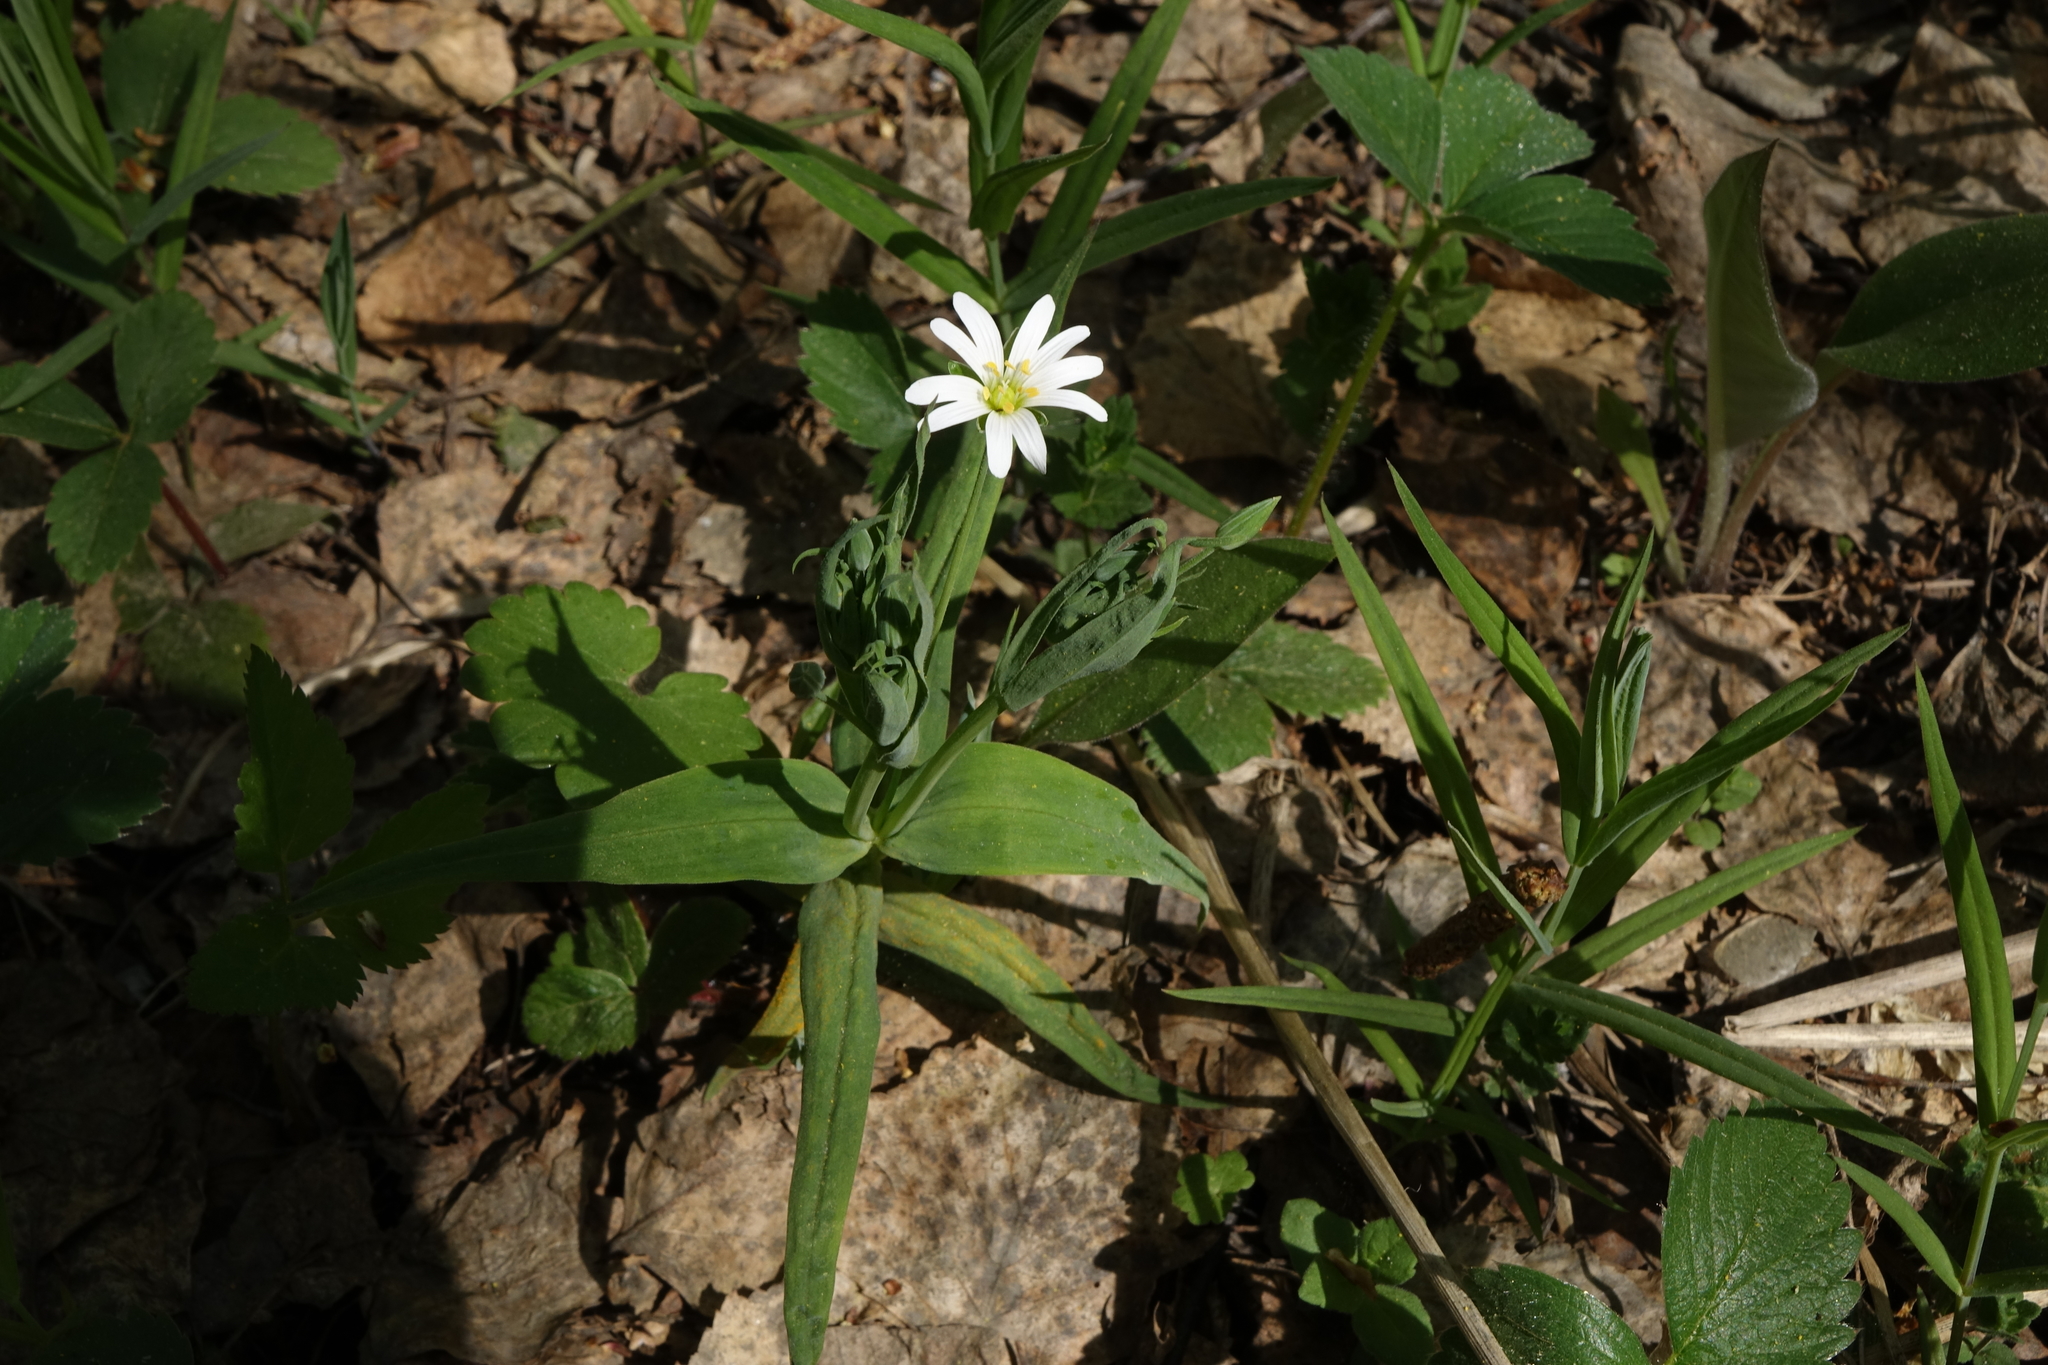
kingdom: Plantae
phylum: Tracheophyta
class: Magnoliopsida
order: Caryophyllales
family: Caryophyllaceae
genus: Rabelera
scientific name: Rabelera holostea
